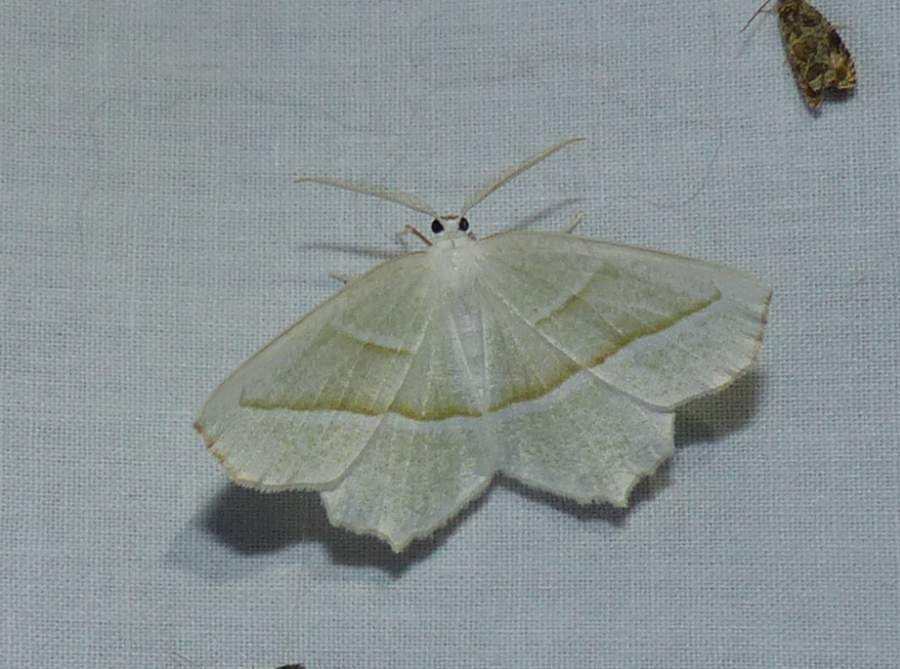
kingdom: Animalia
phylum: Arthropoda
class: Insecta
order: Lepidoptera
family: Geometridae
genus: Campaea
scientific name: Campaea perlata
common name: Fringed looper
